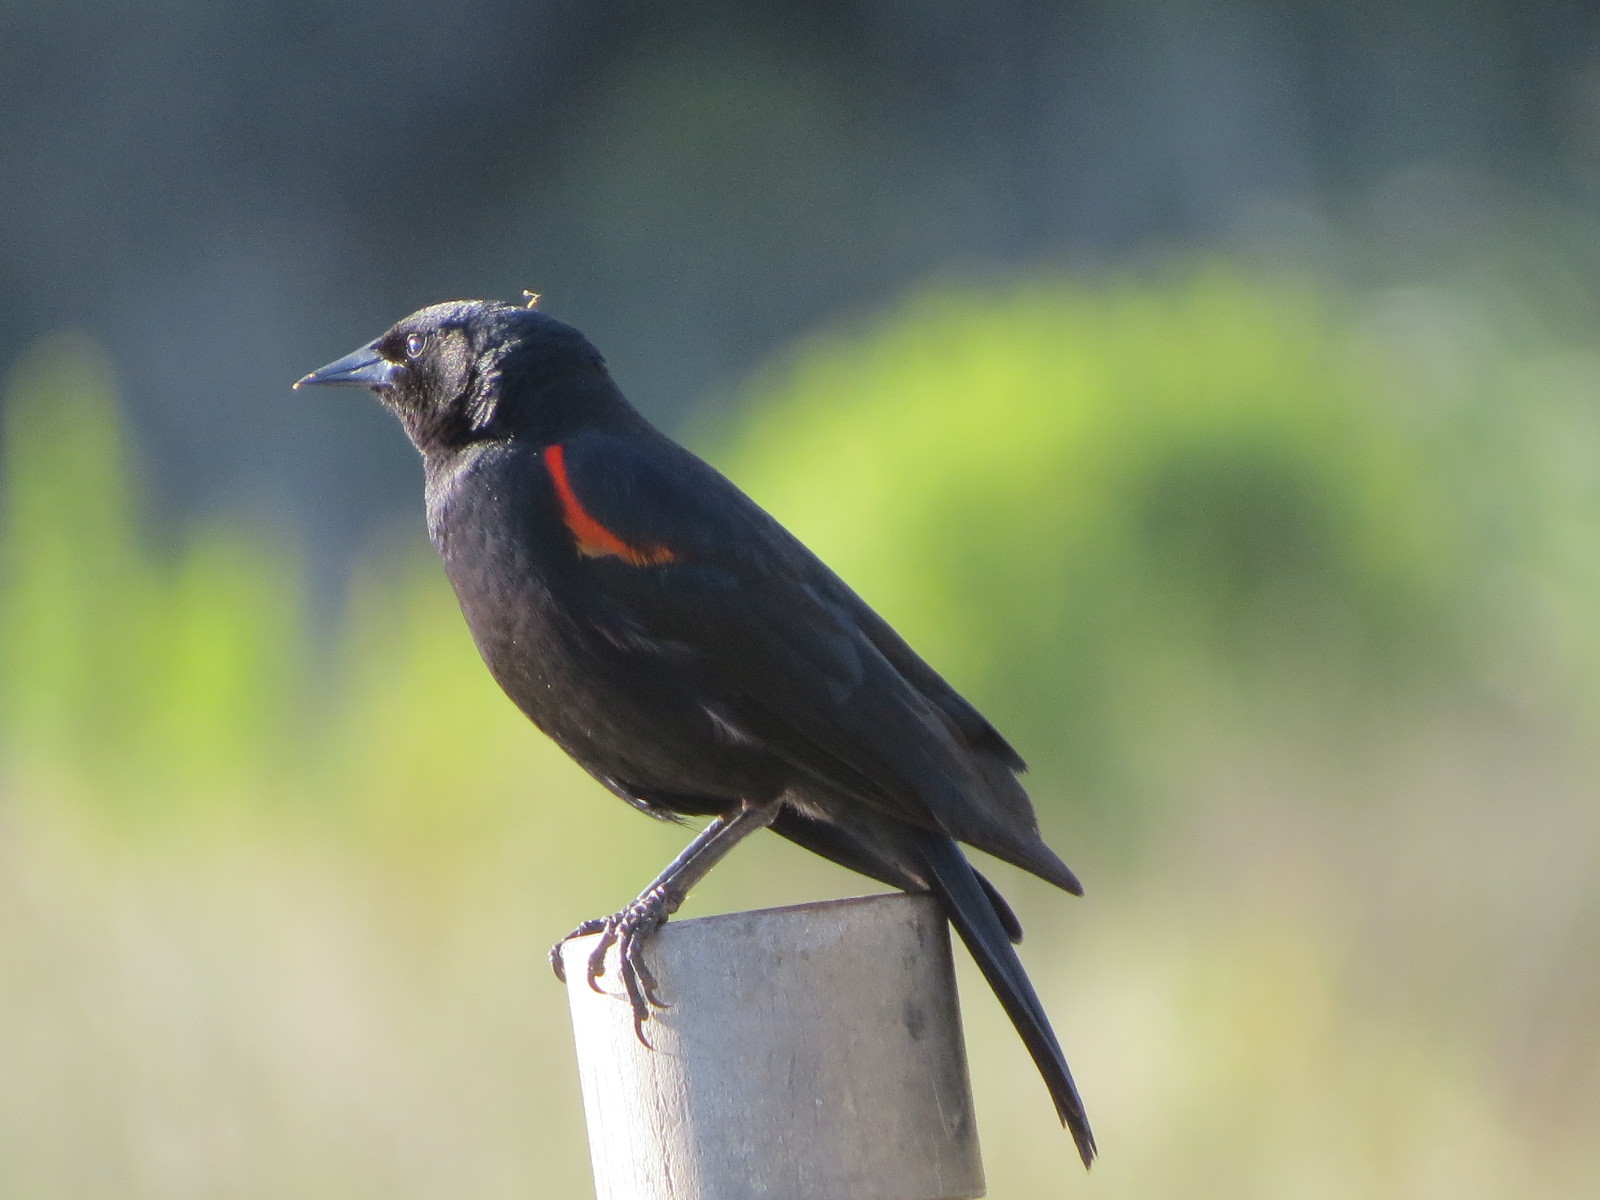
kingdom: Animalia
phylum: Chordata
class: Aves
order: Passeriformes
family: Icteridae
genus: Agelaius
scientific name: Agelaius phoeniceus
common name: Red-winged blackbird
